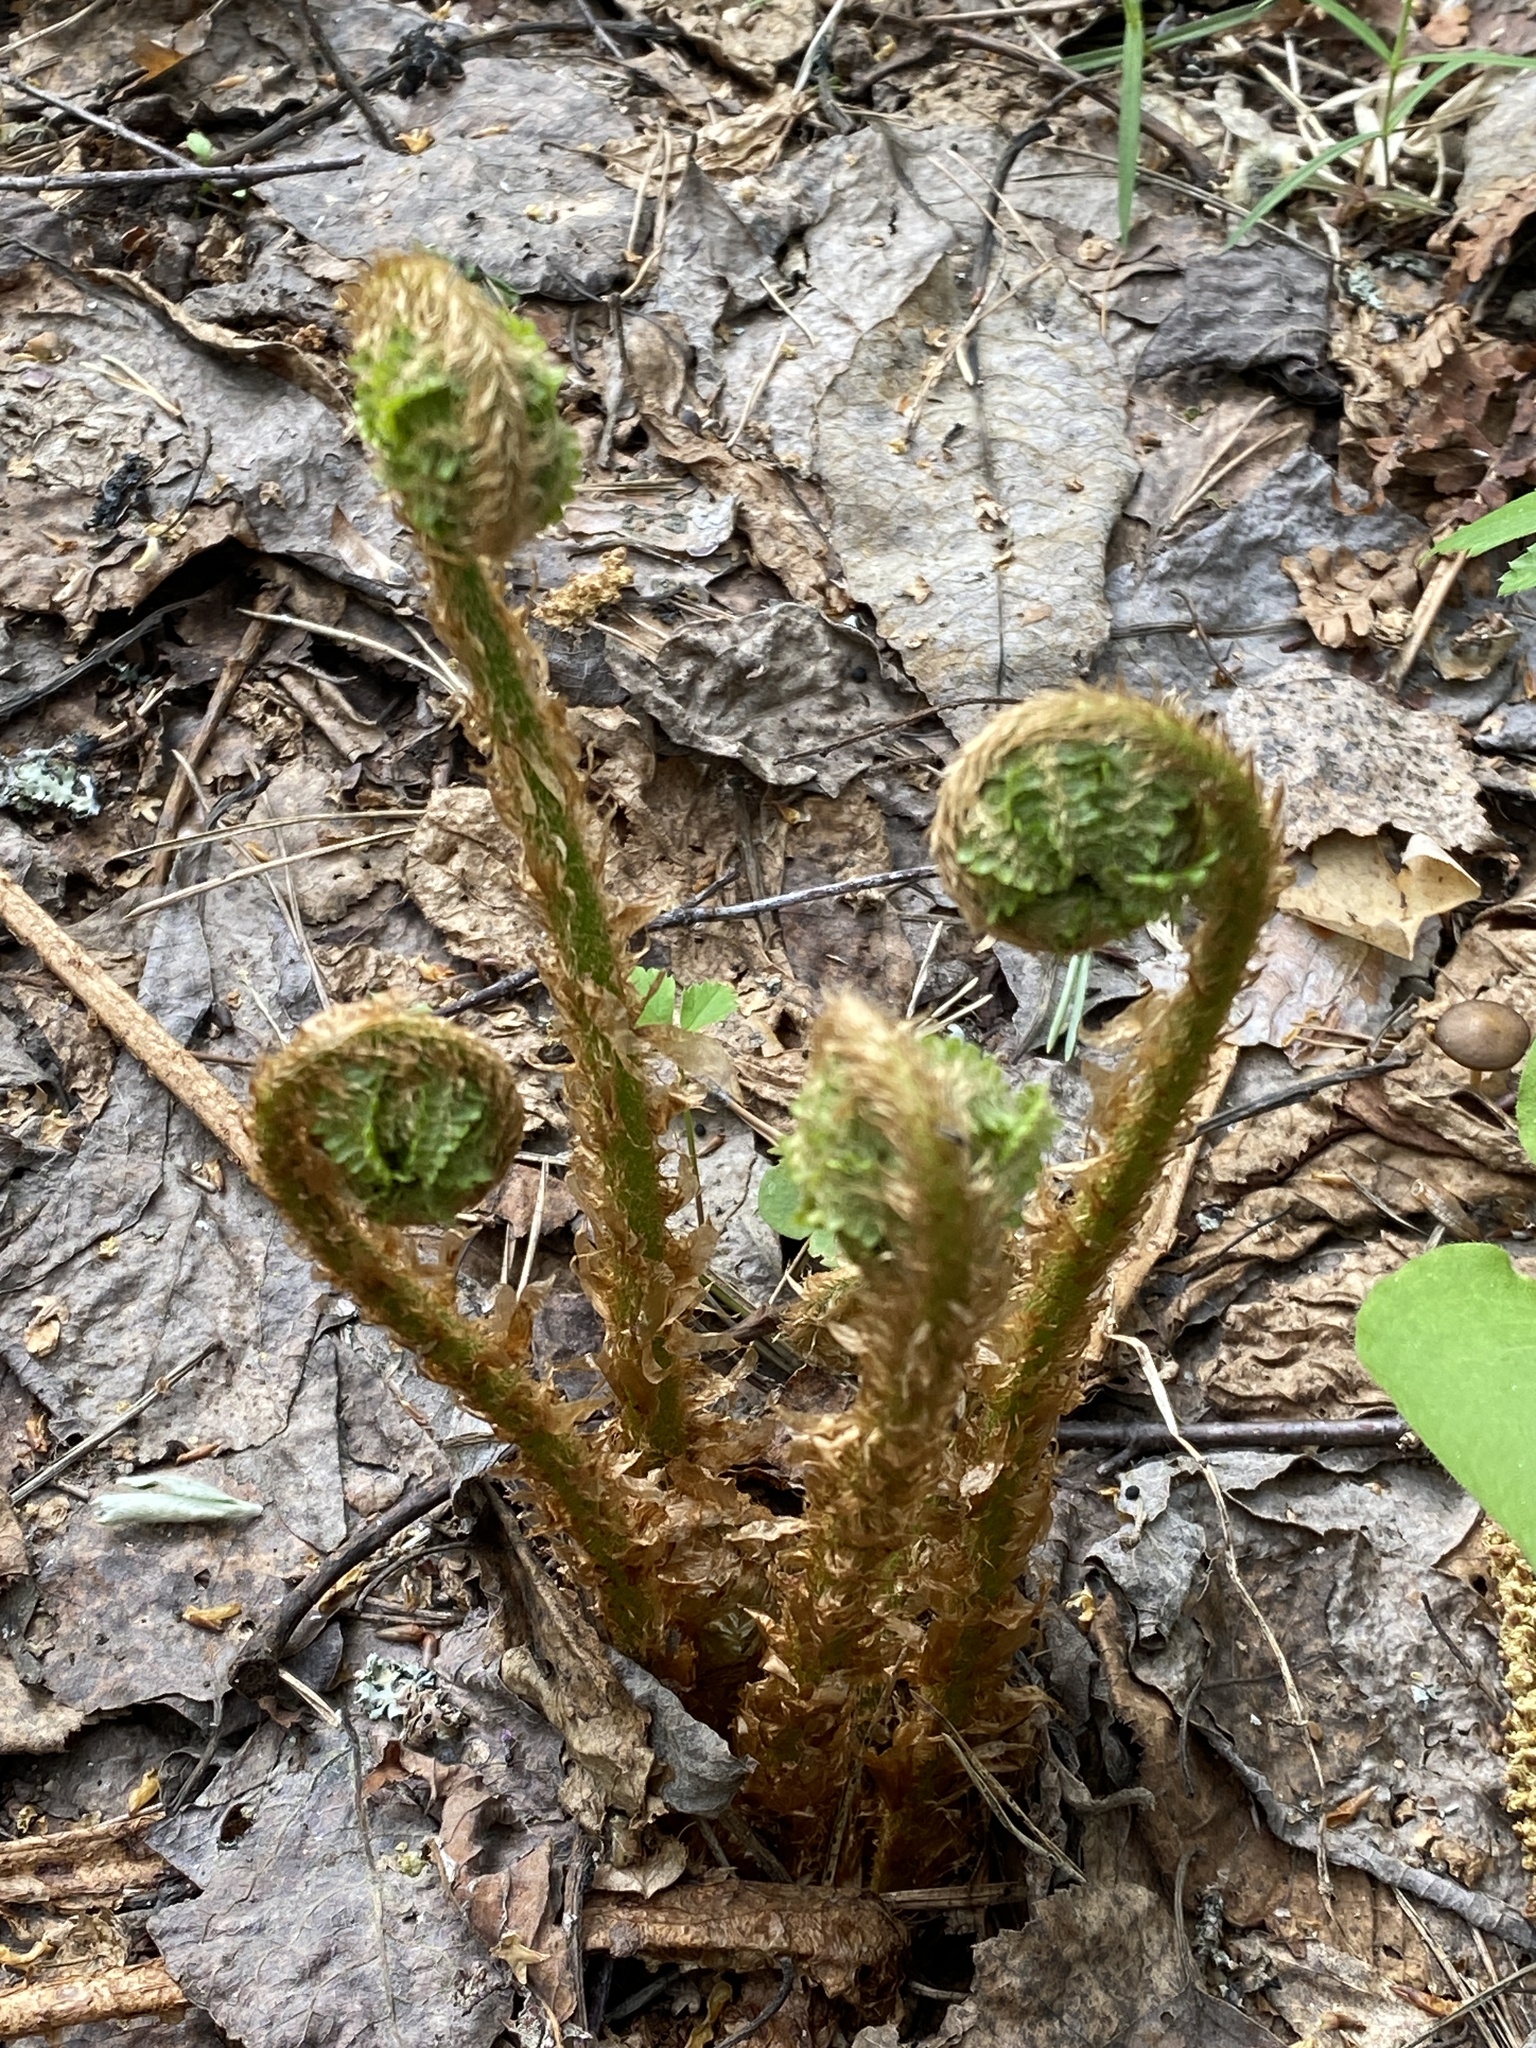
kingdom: Plantae
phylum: Tracheophyta
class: Polypodiopsida
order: Polypodiales
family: Dryopteridaceae
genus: Dryopteris
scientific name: Dryopteris filix-mas
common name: Male fern
